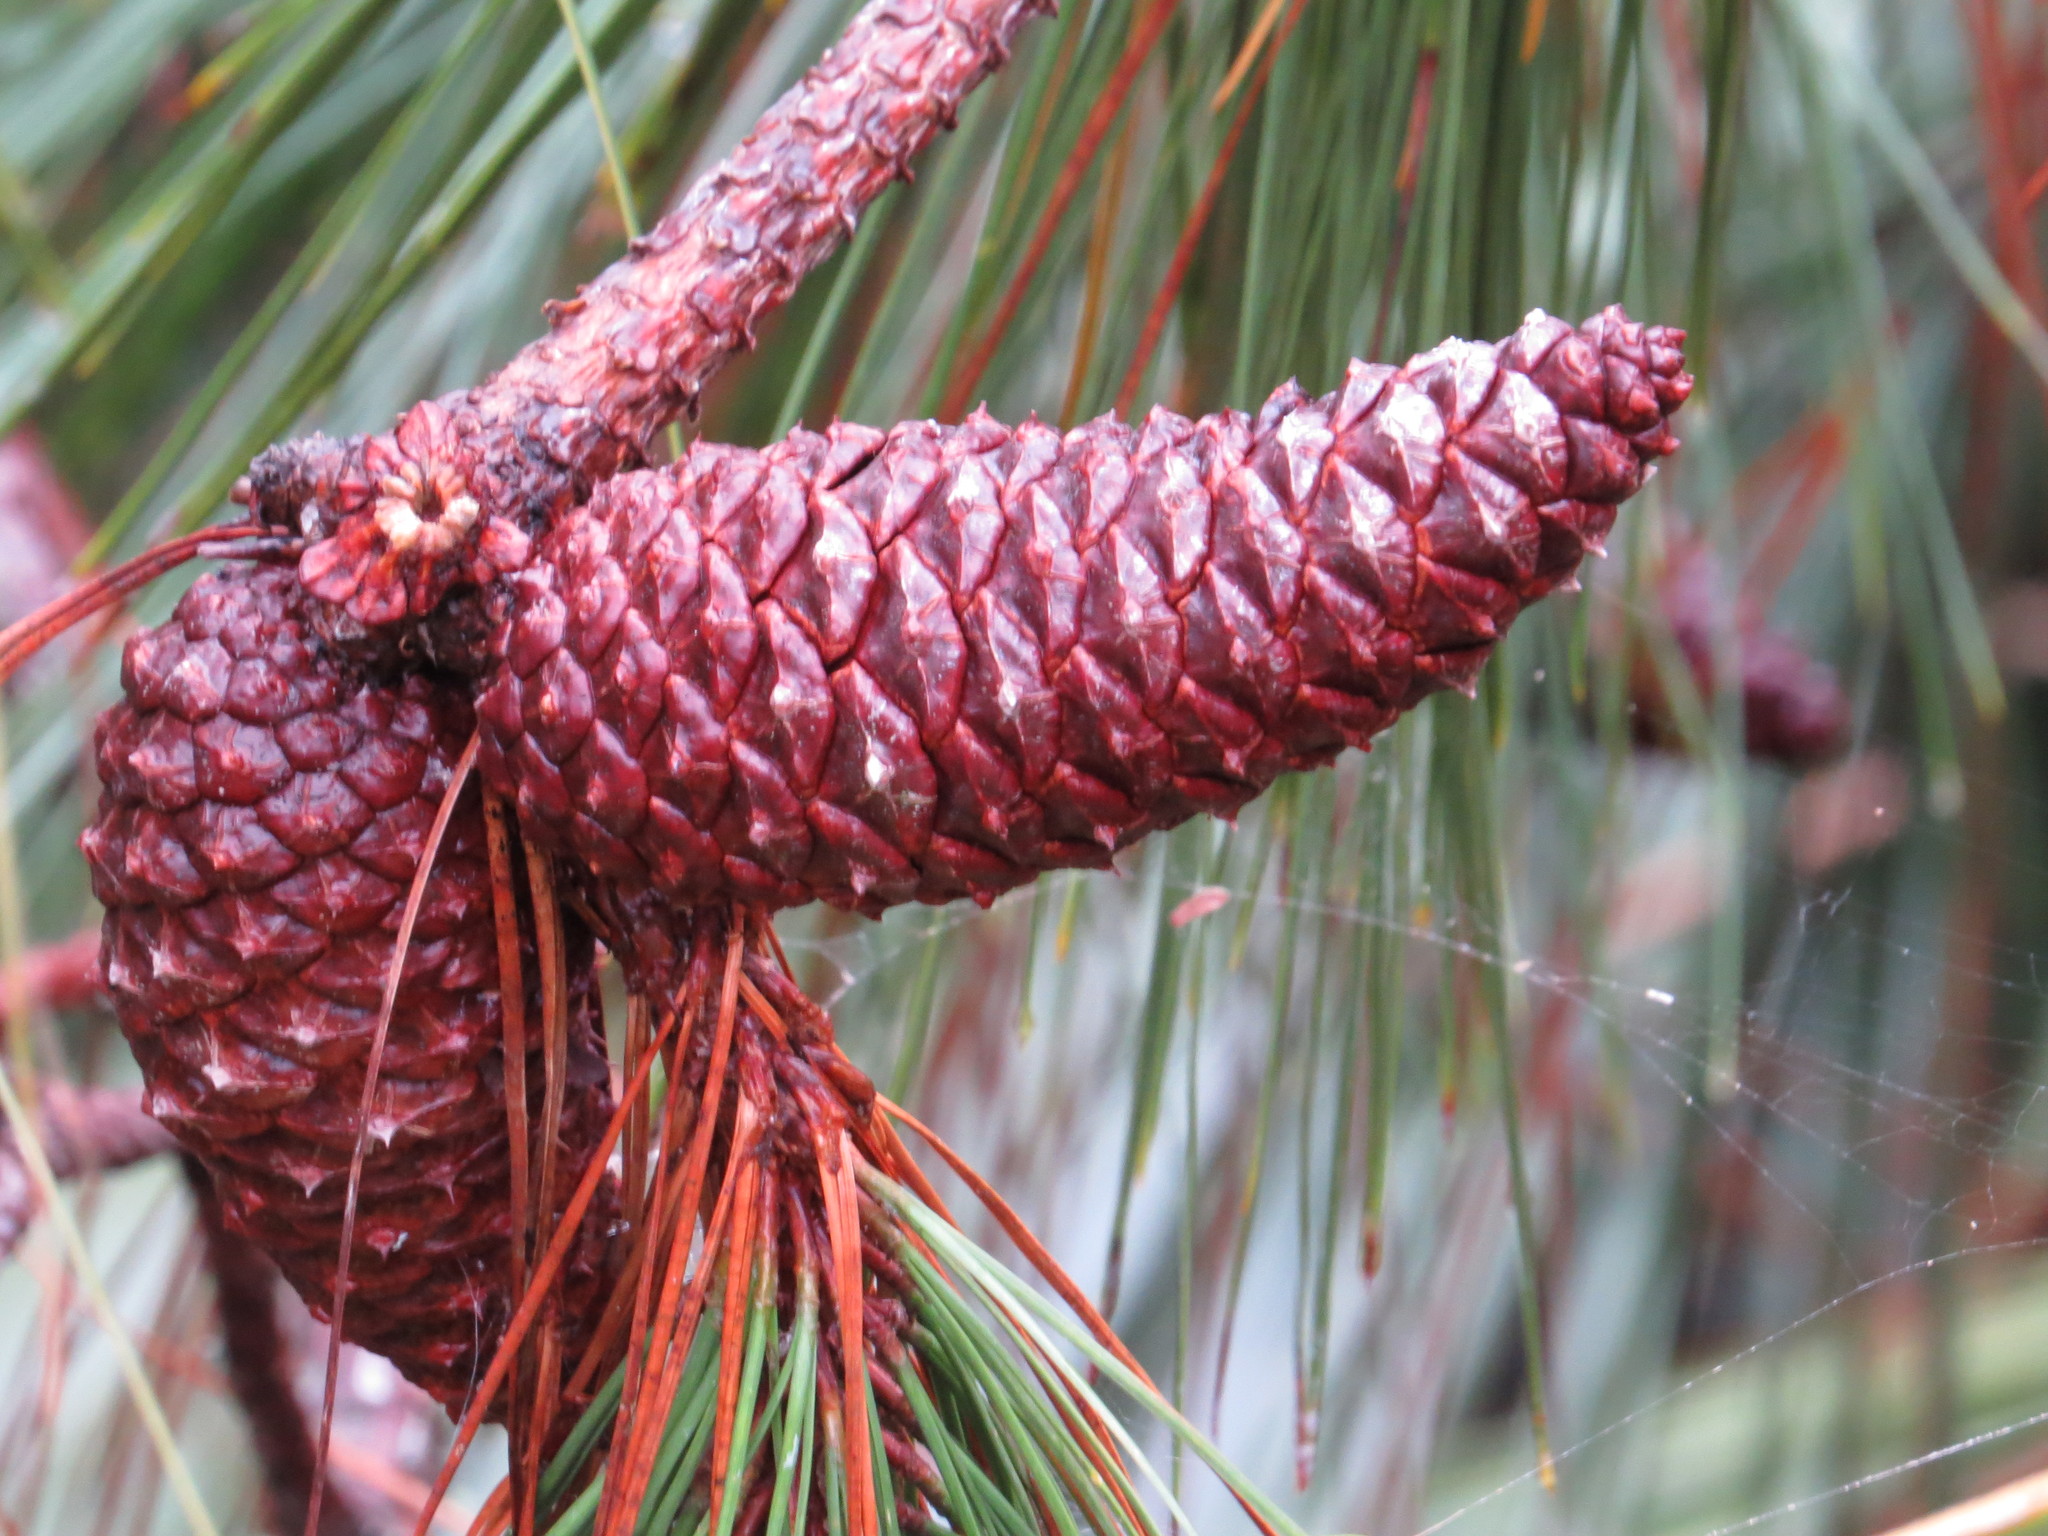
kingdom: Plantae
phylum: Tracheophyta
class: Pinopsida
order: Pinales
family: Pinaceae
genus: Pinus
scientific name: Pinus taeda
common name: Loblolly pine
